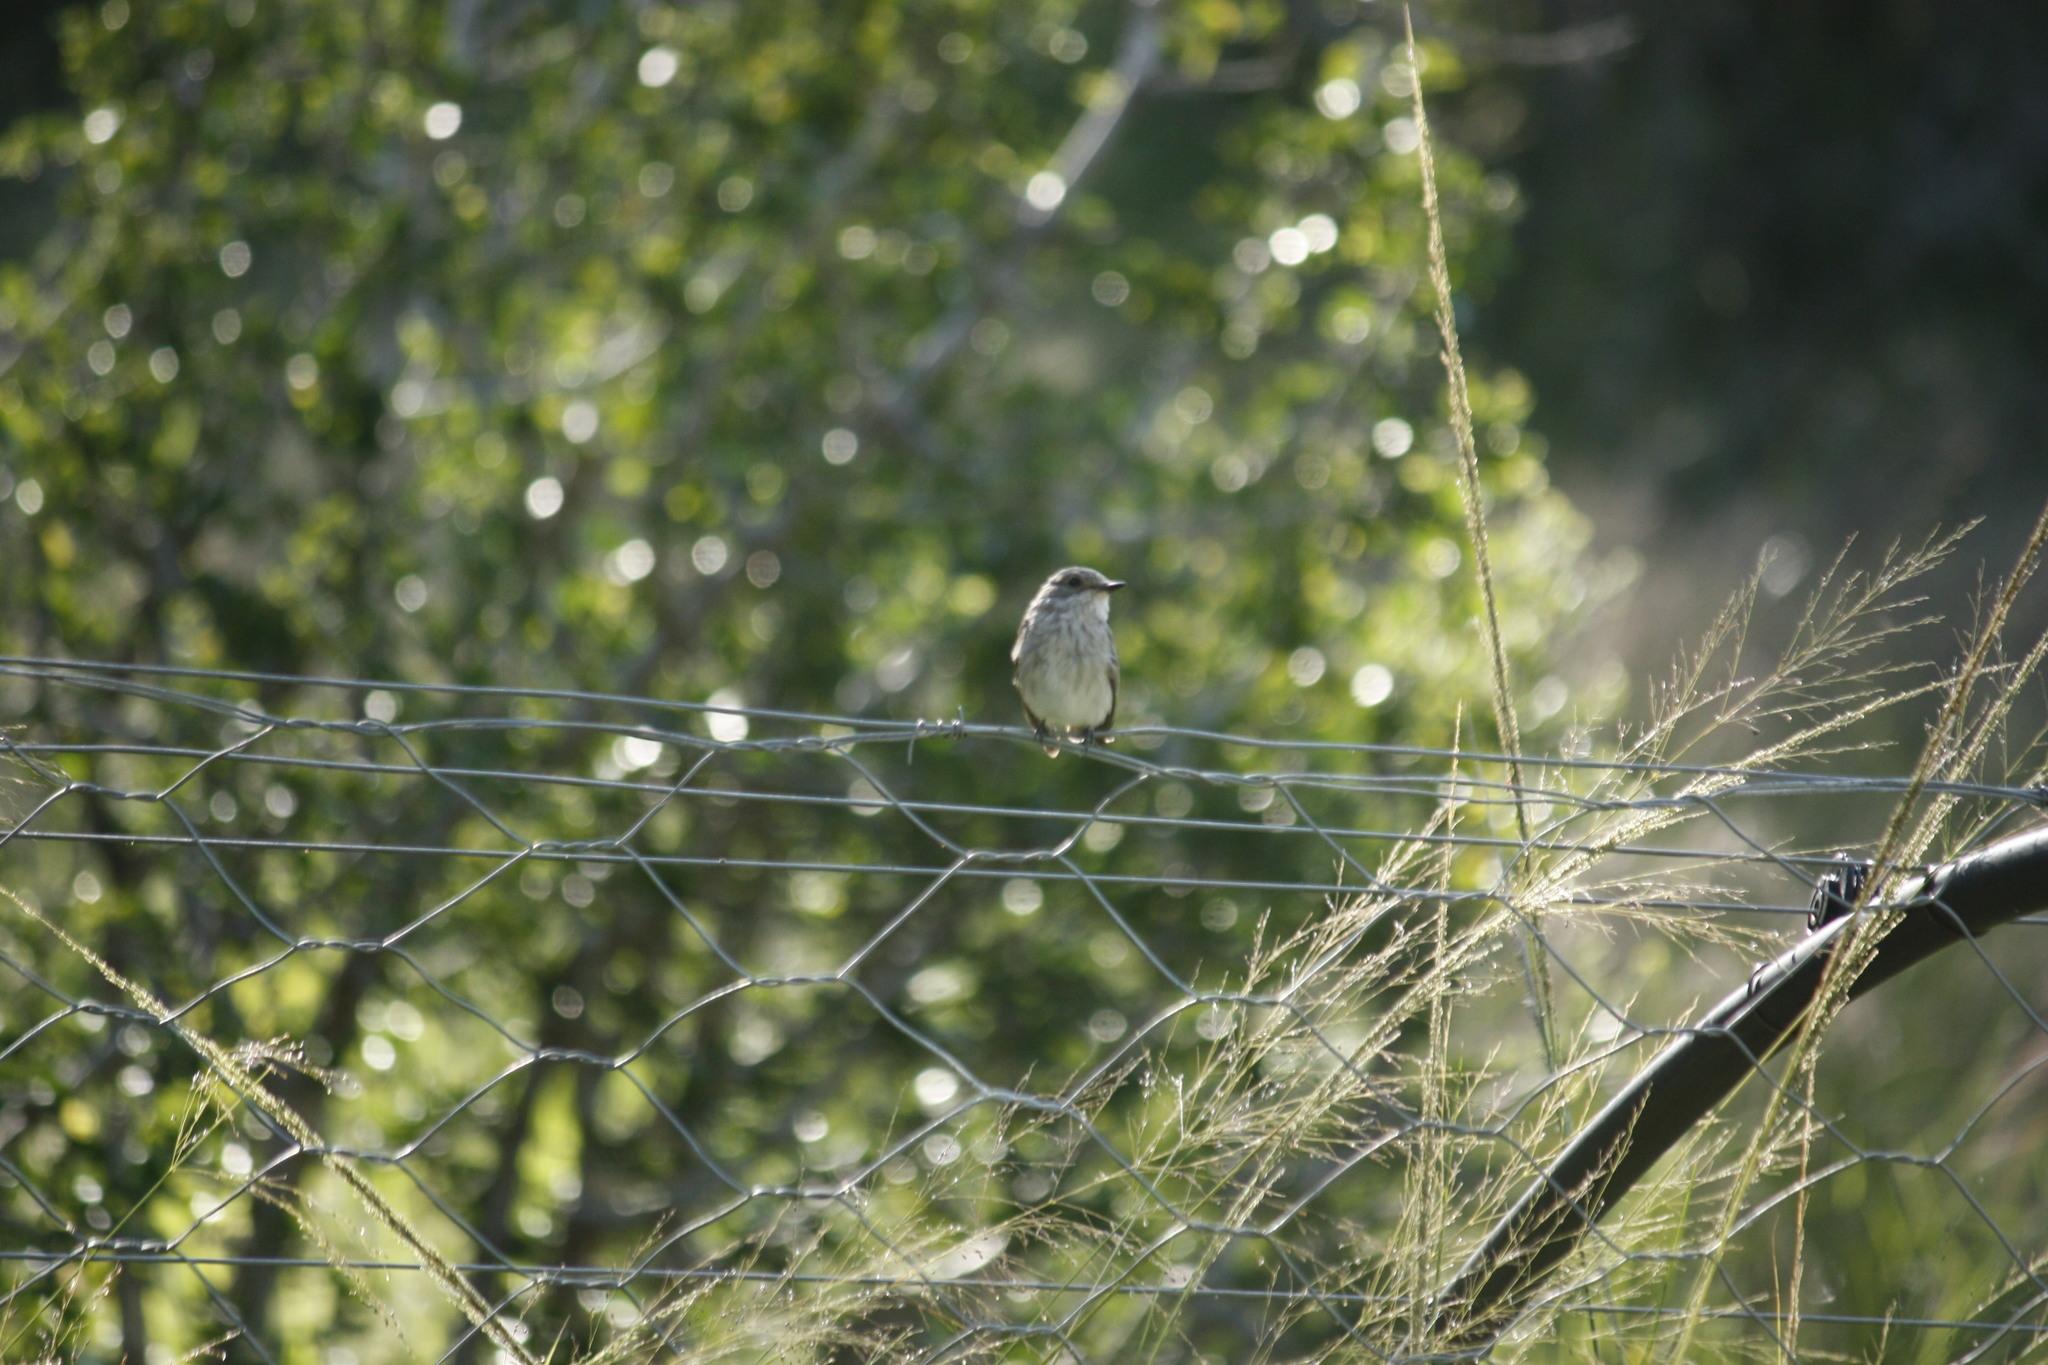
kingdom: Animalia
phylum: Chordata
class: Aves
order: Passeriformes
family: Muscicapidae
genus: Muscicapa
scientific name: Muscicapa striata
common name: Spotted flycatcher
